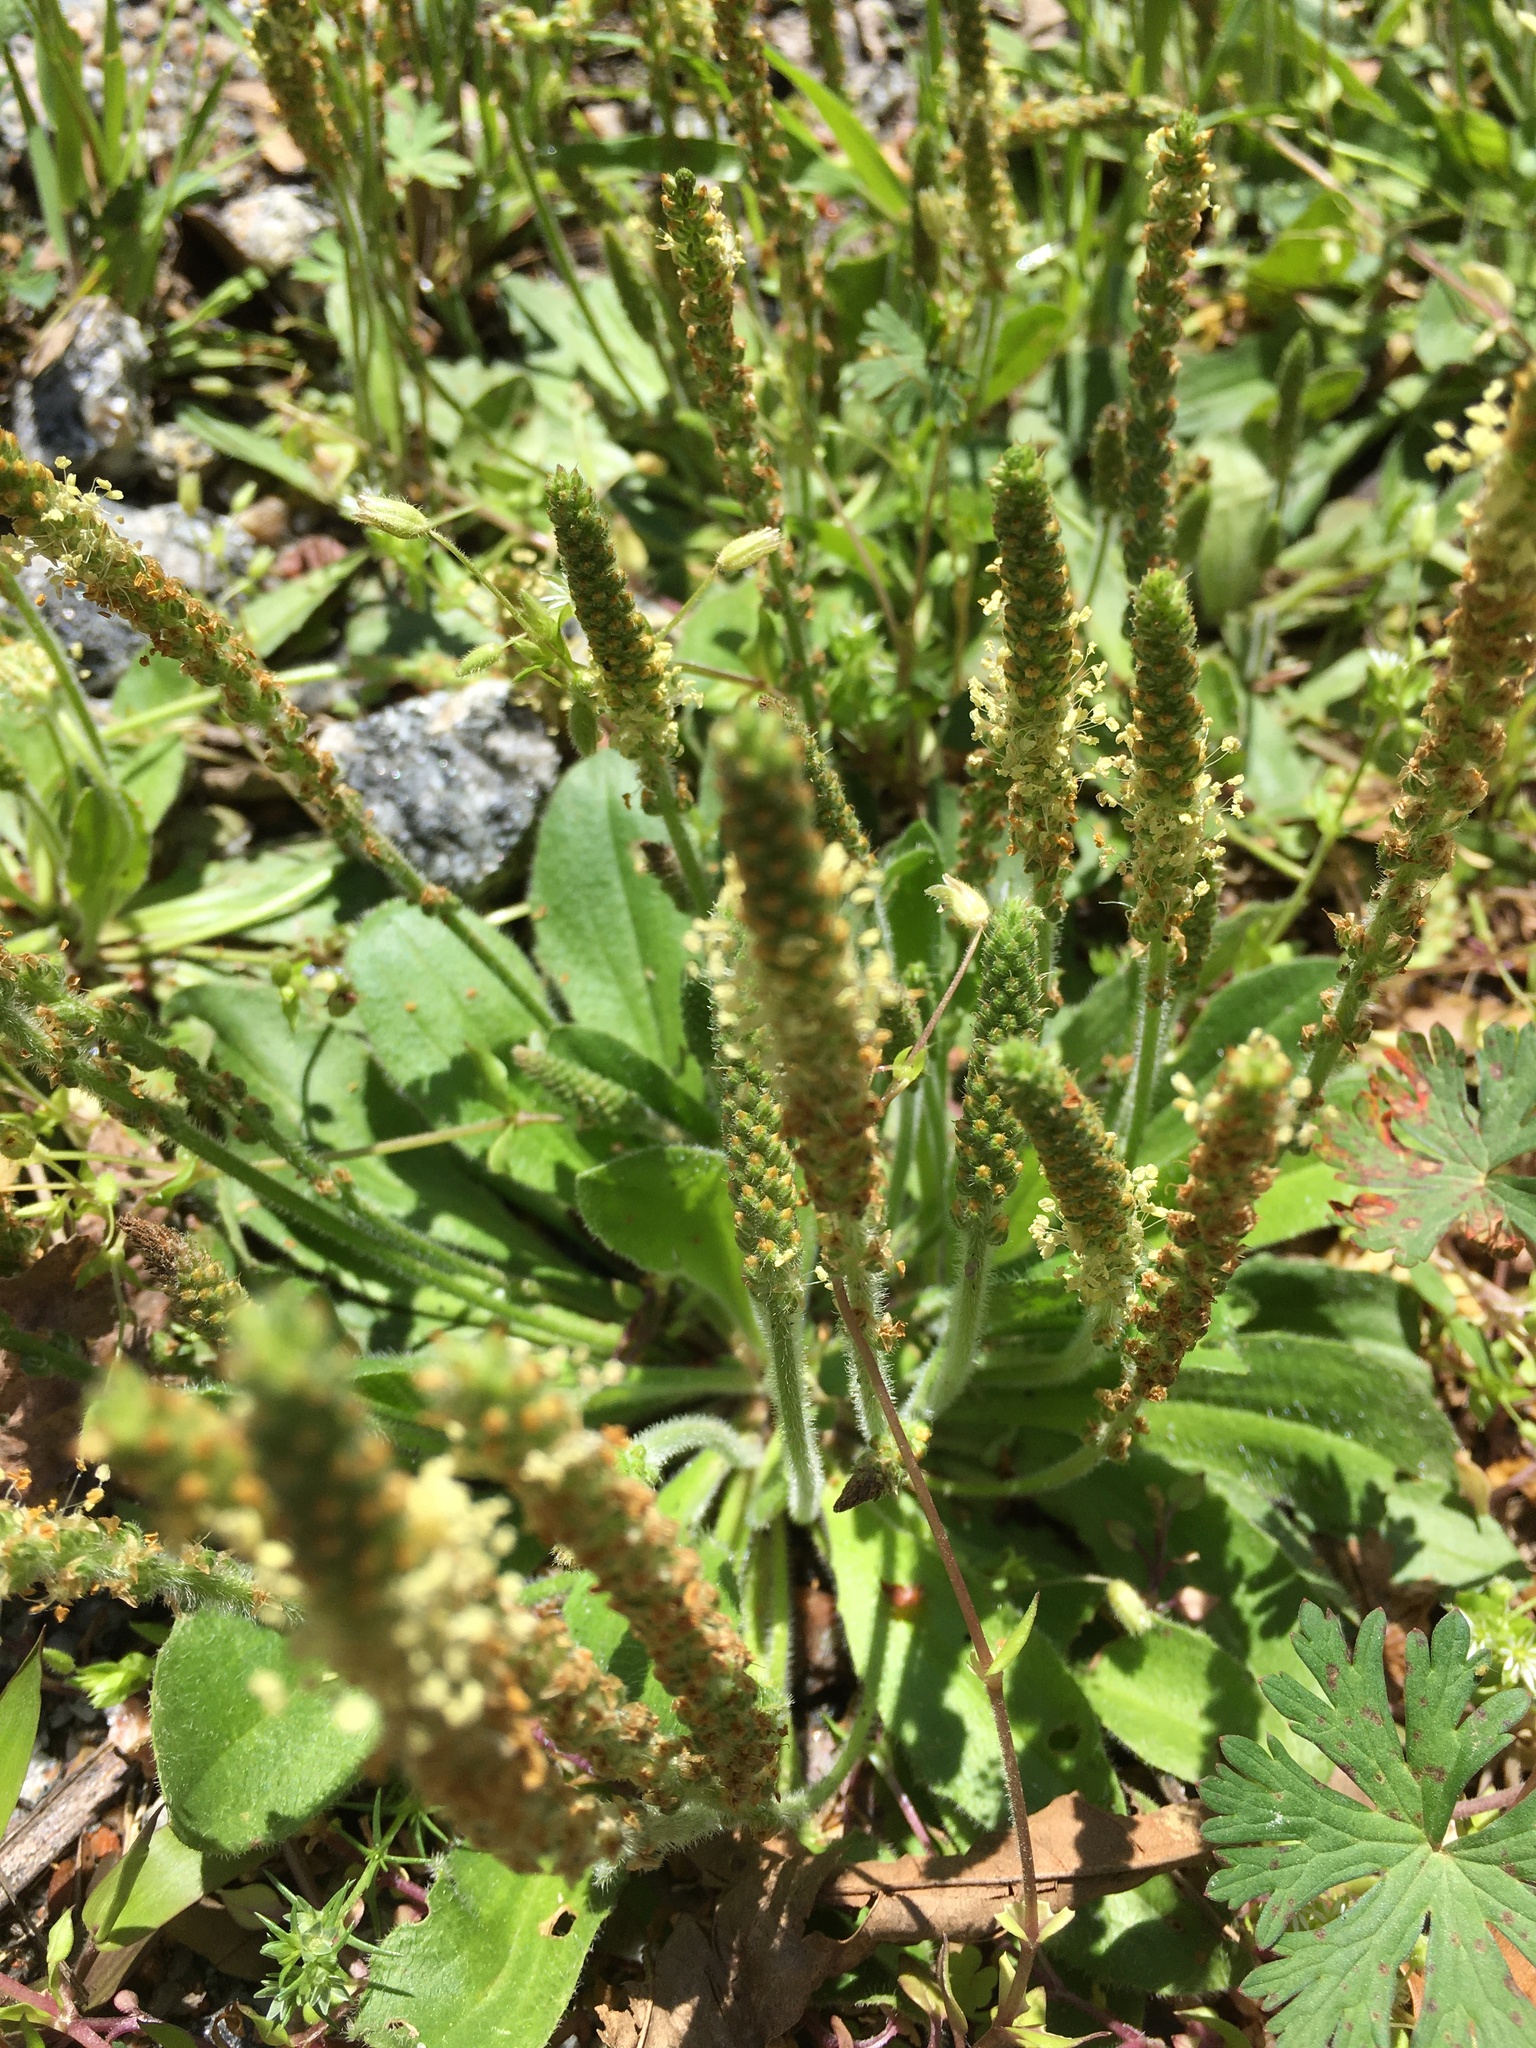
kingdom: Plantae
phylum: Tracheophyta
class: Magnoliopsida
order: Lamiales
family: Plantaginaceae
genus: Plantago
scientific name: Plantago virginica
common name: Hoary plantain
